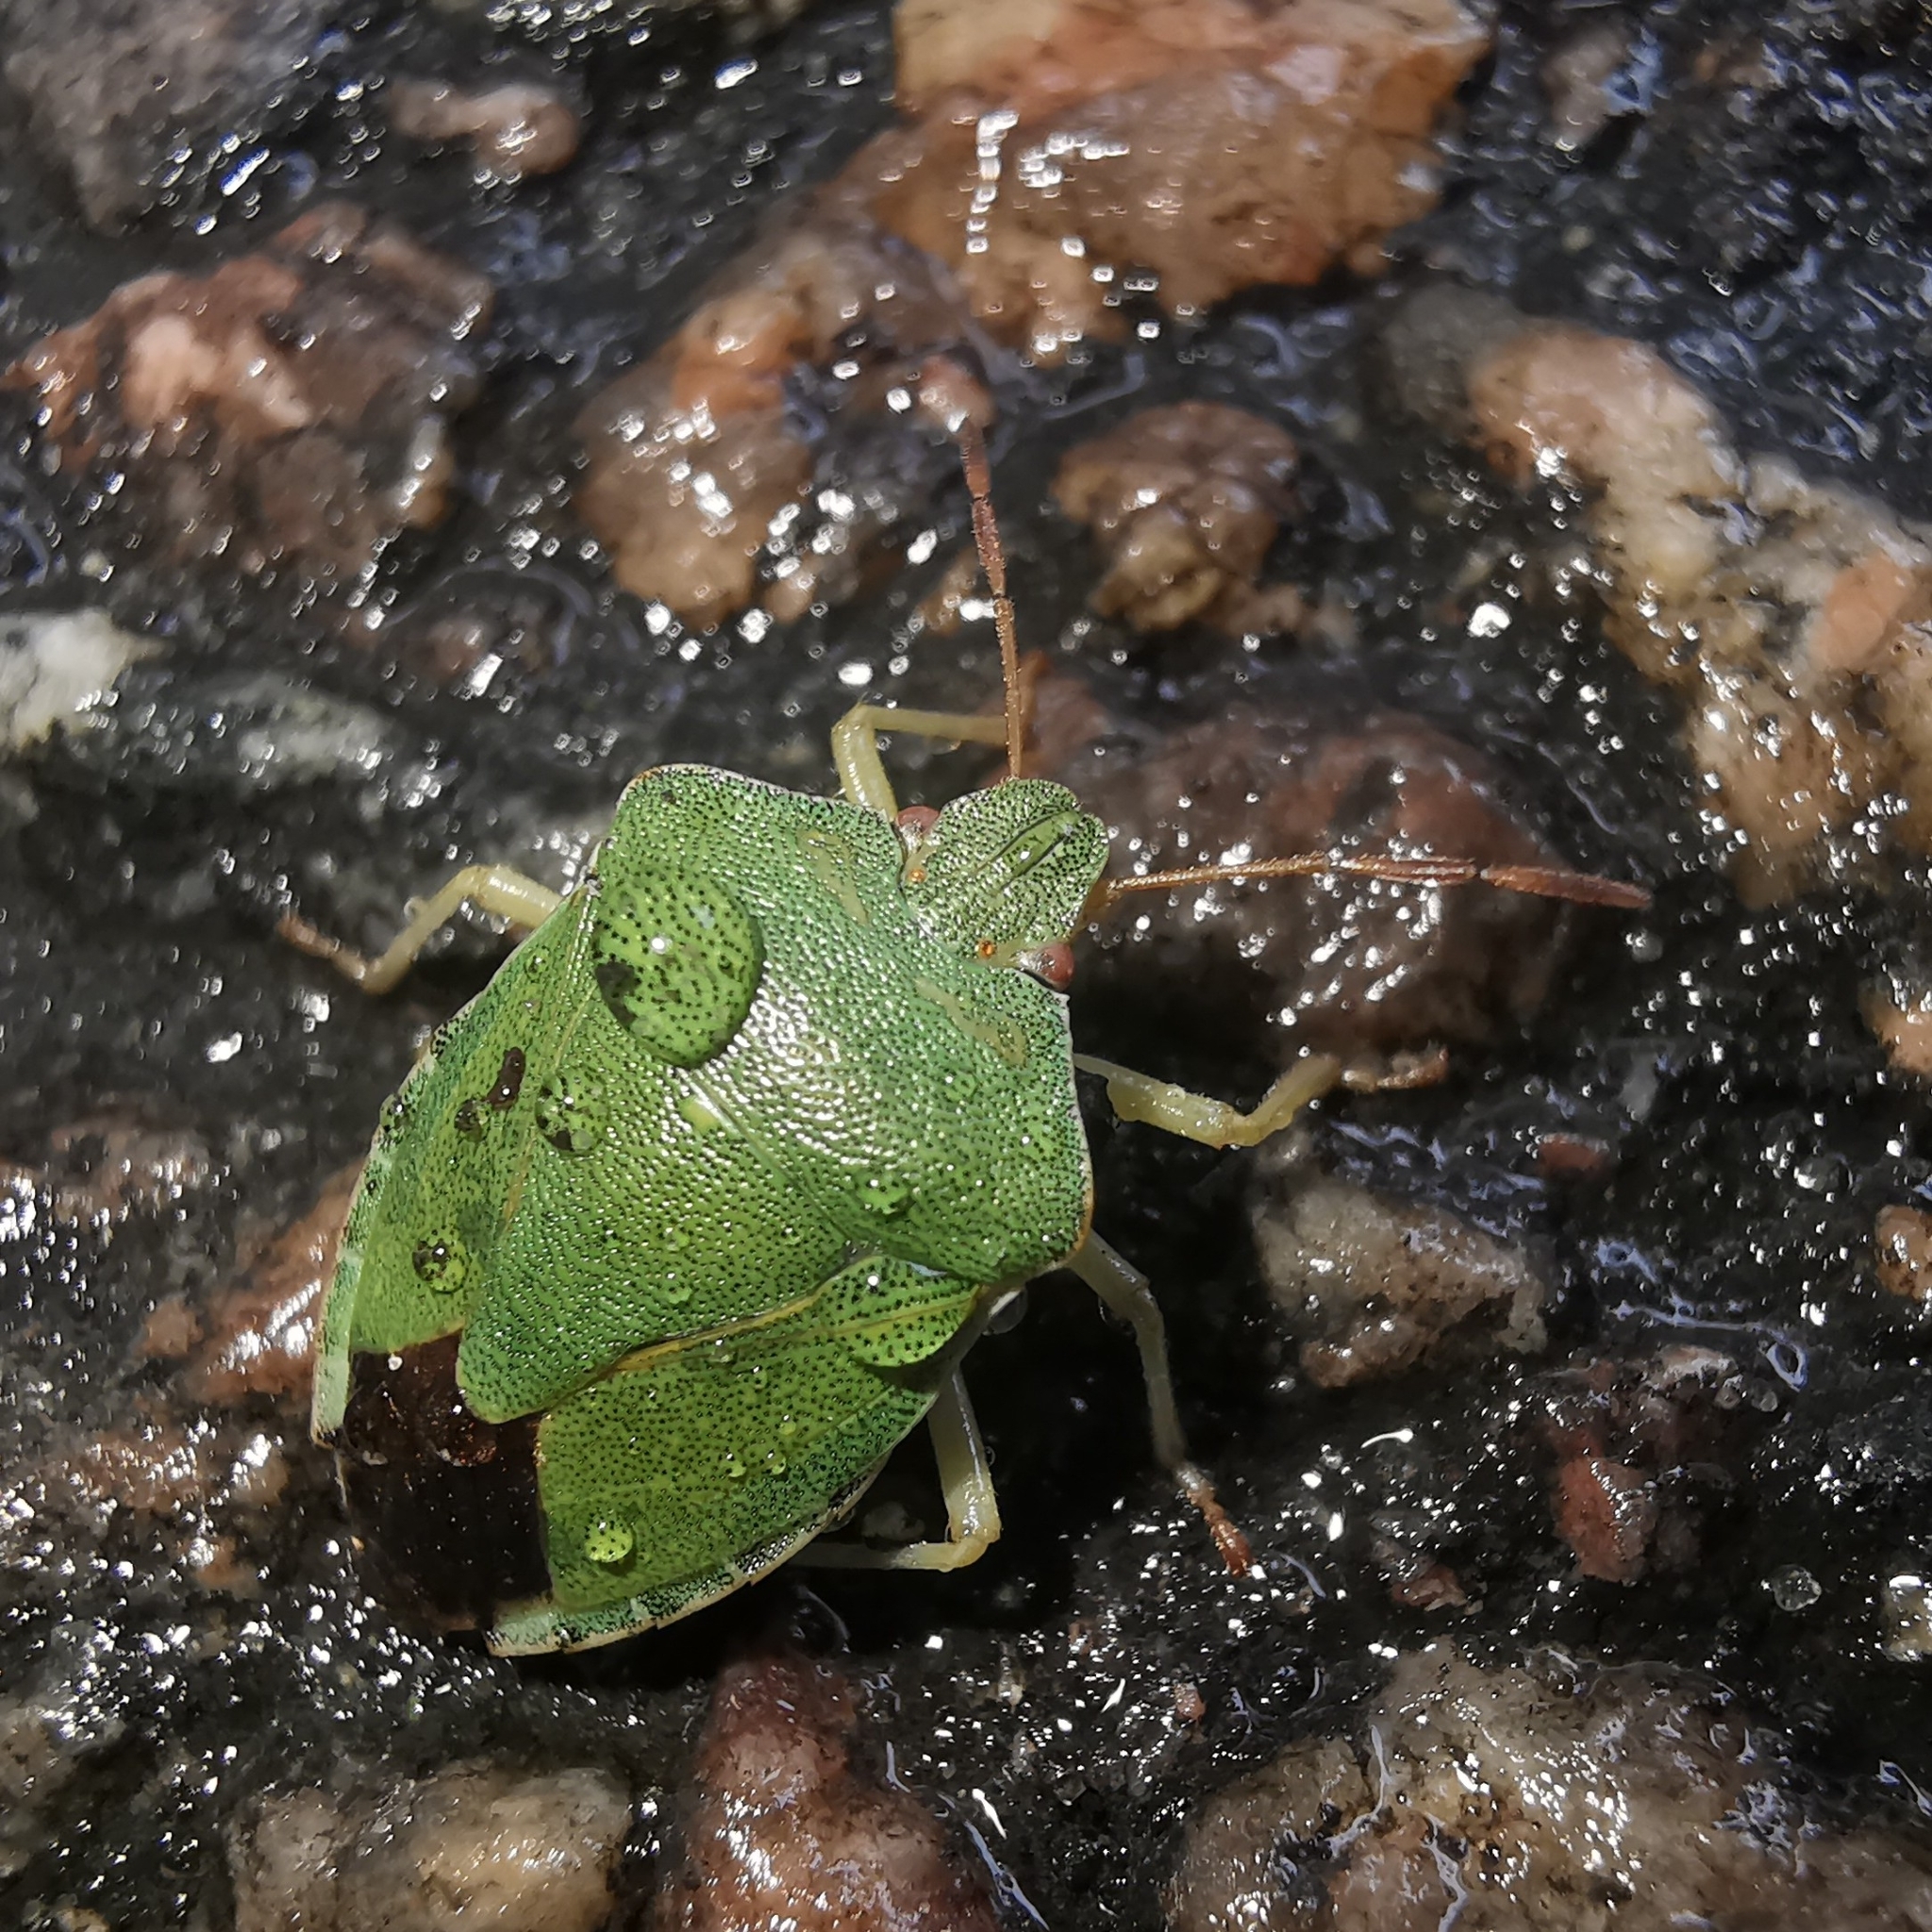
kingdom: Animalia
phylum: Arthropoda
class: Insecta
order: Hemiptera
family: Pentatomidae
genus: Palomena
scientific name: Palomena prasina
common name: Green shieldbug
